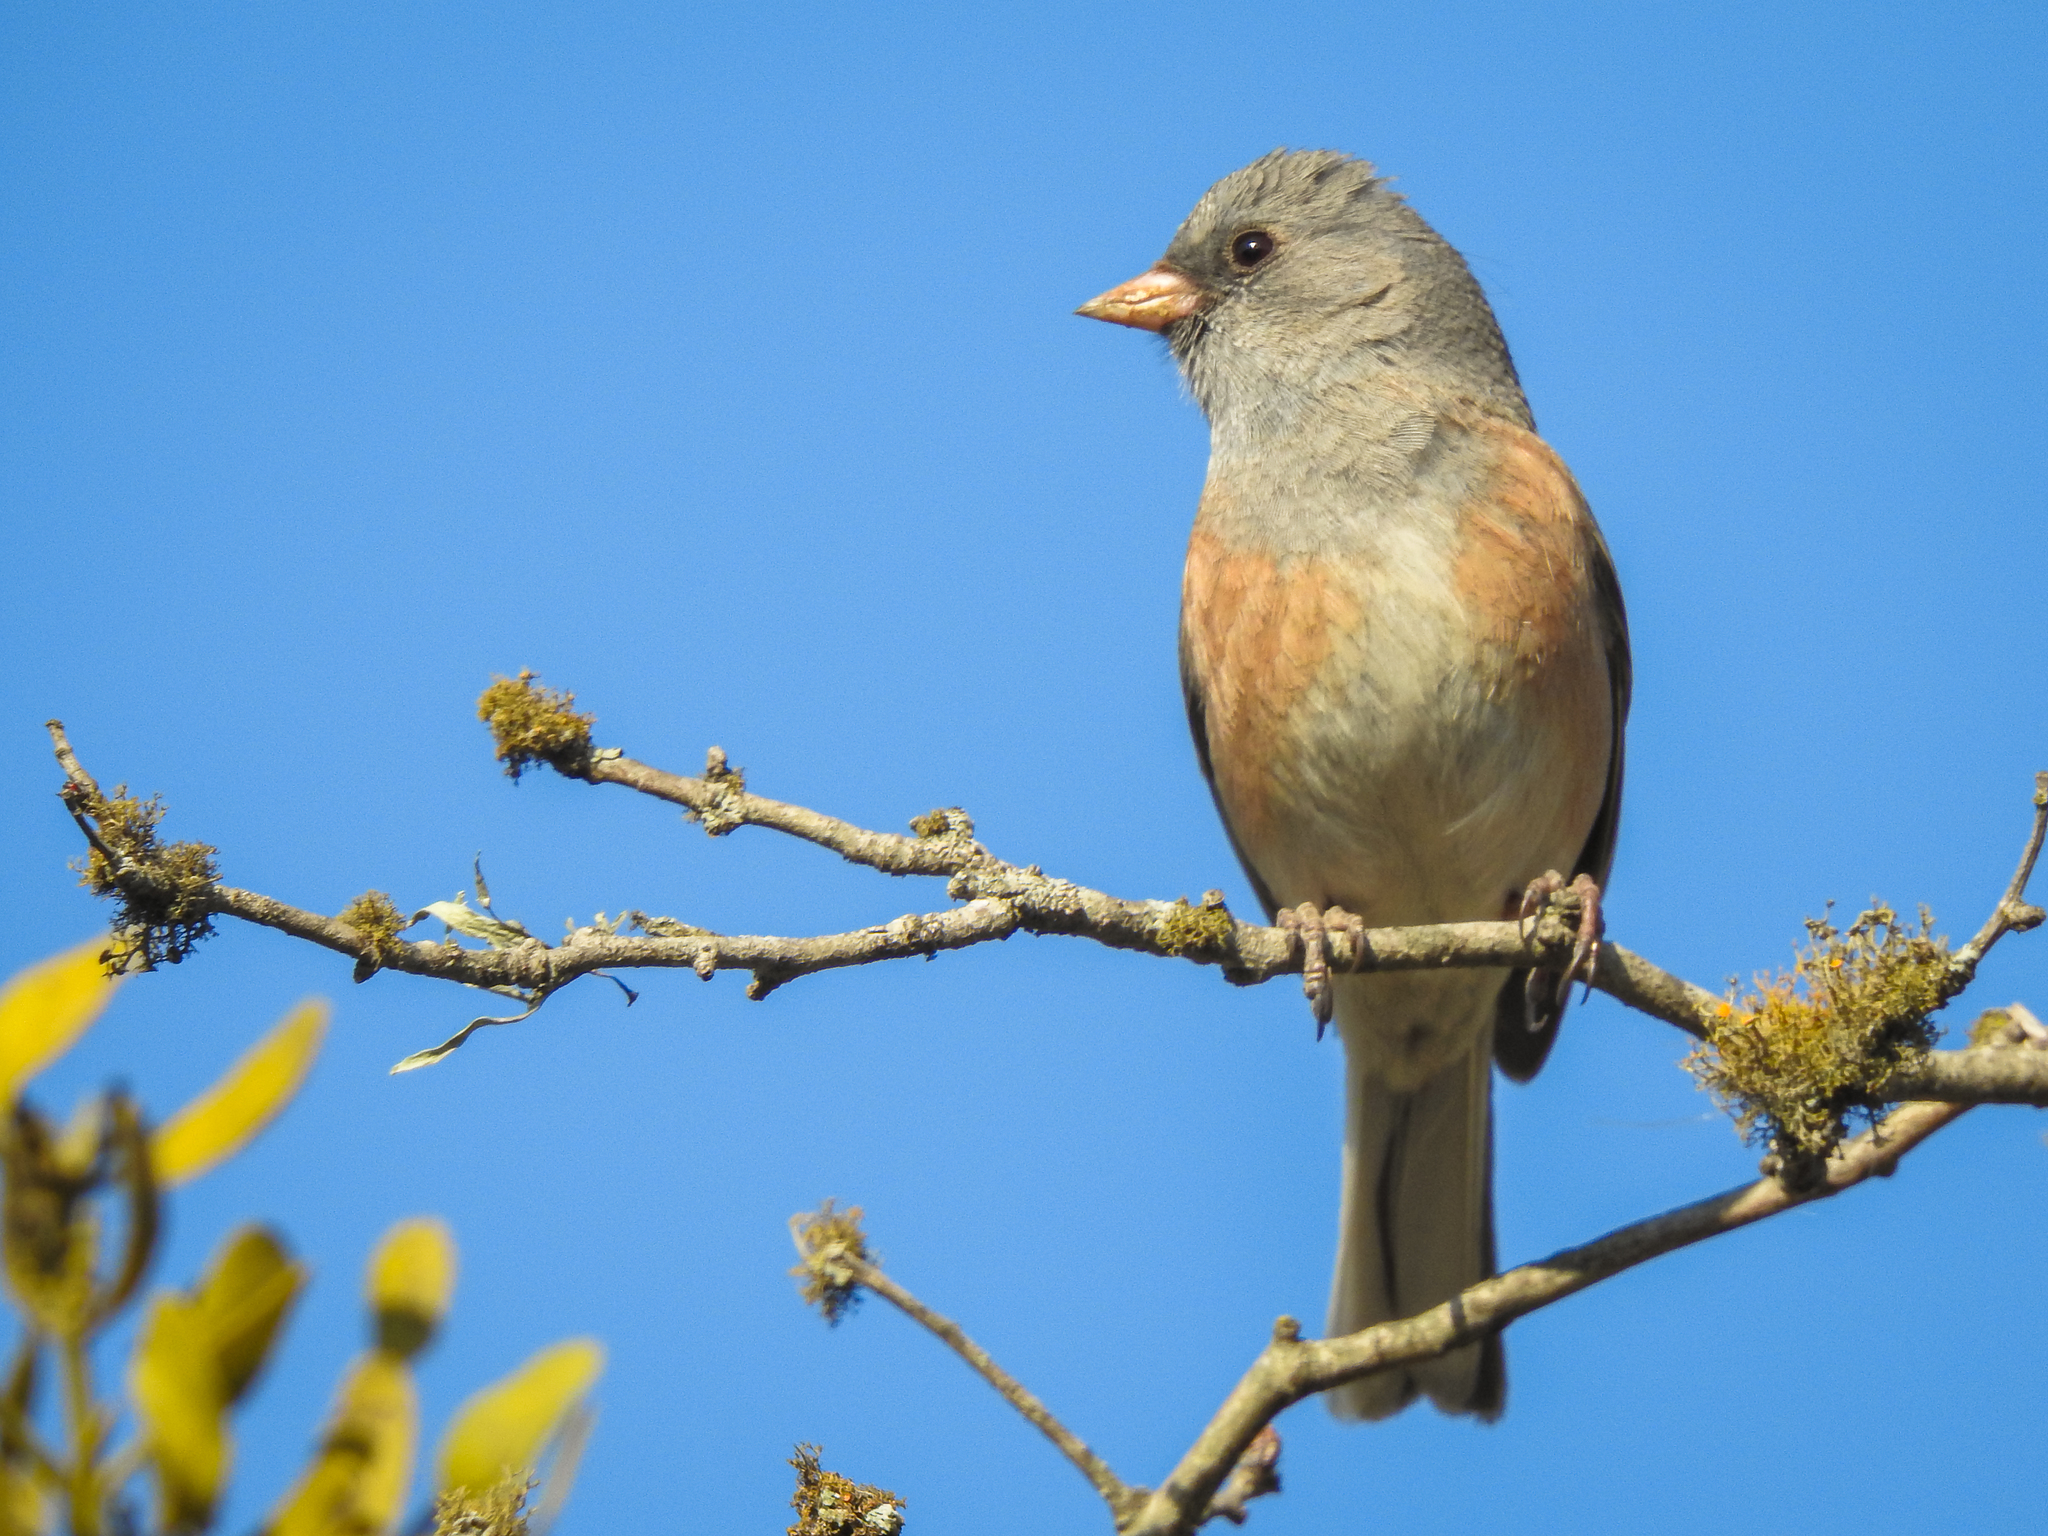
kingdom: Animalia
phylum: Chordata
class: Aves
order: Passeriformes
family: Passerellidae
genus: Junco
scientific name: Junco hyemalis
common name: Dark-eyed junco
